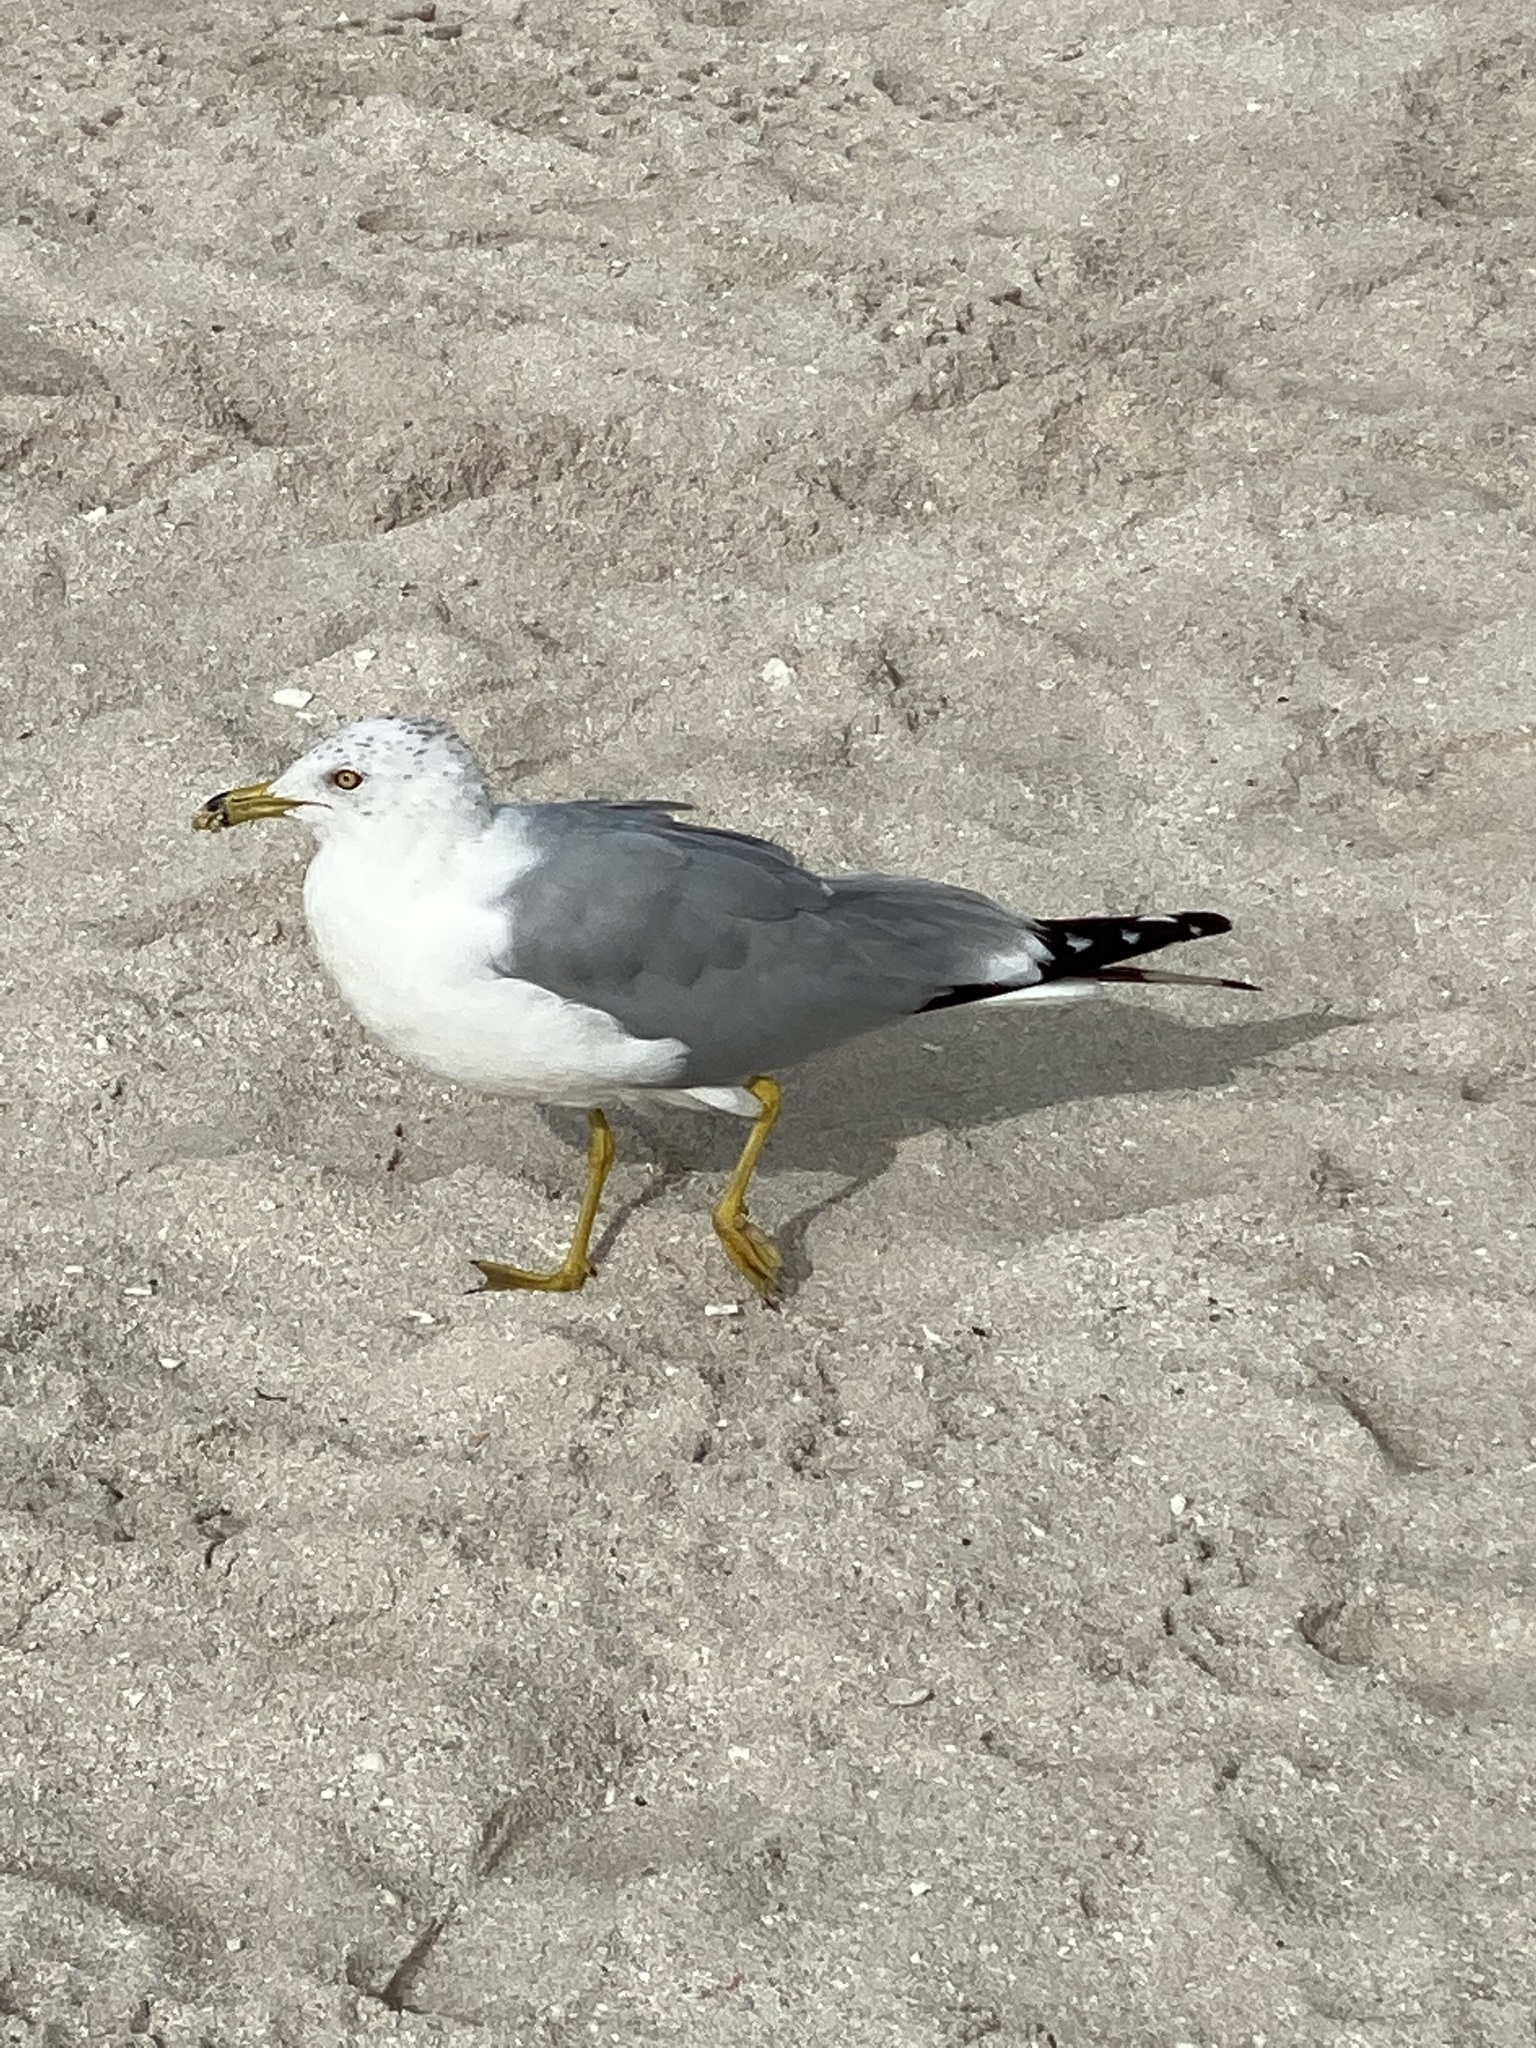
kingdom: Animalia
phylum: Chordata
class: Aves
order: Charadriiformes
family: Laridae
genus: Larus
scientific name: Larus delawarensis
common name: Ring-billed gull
